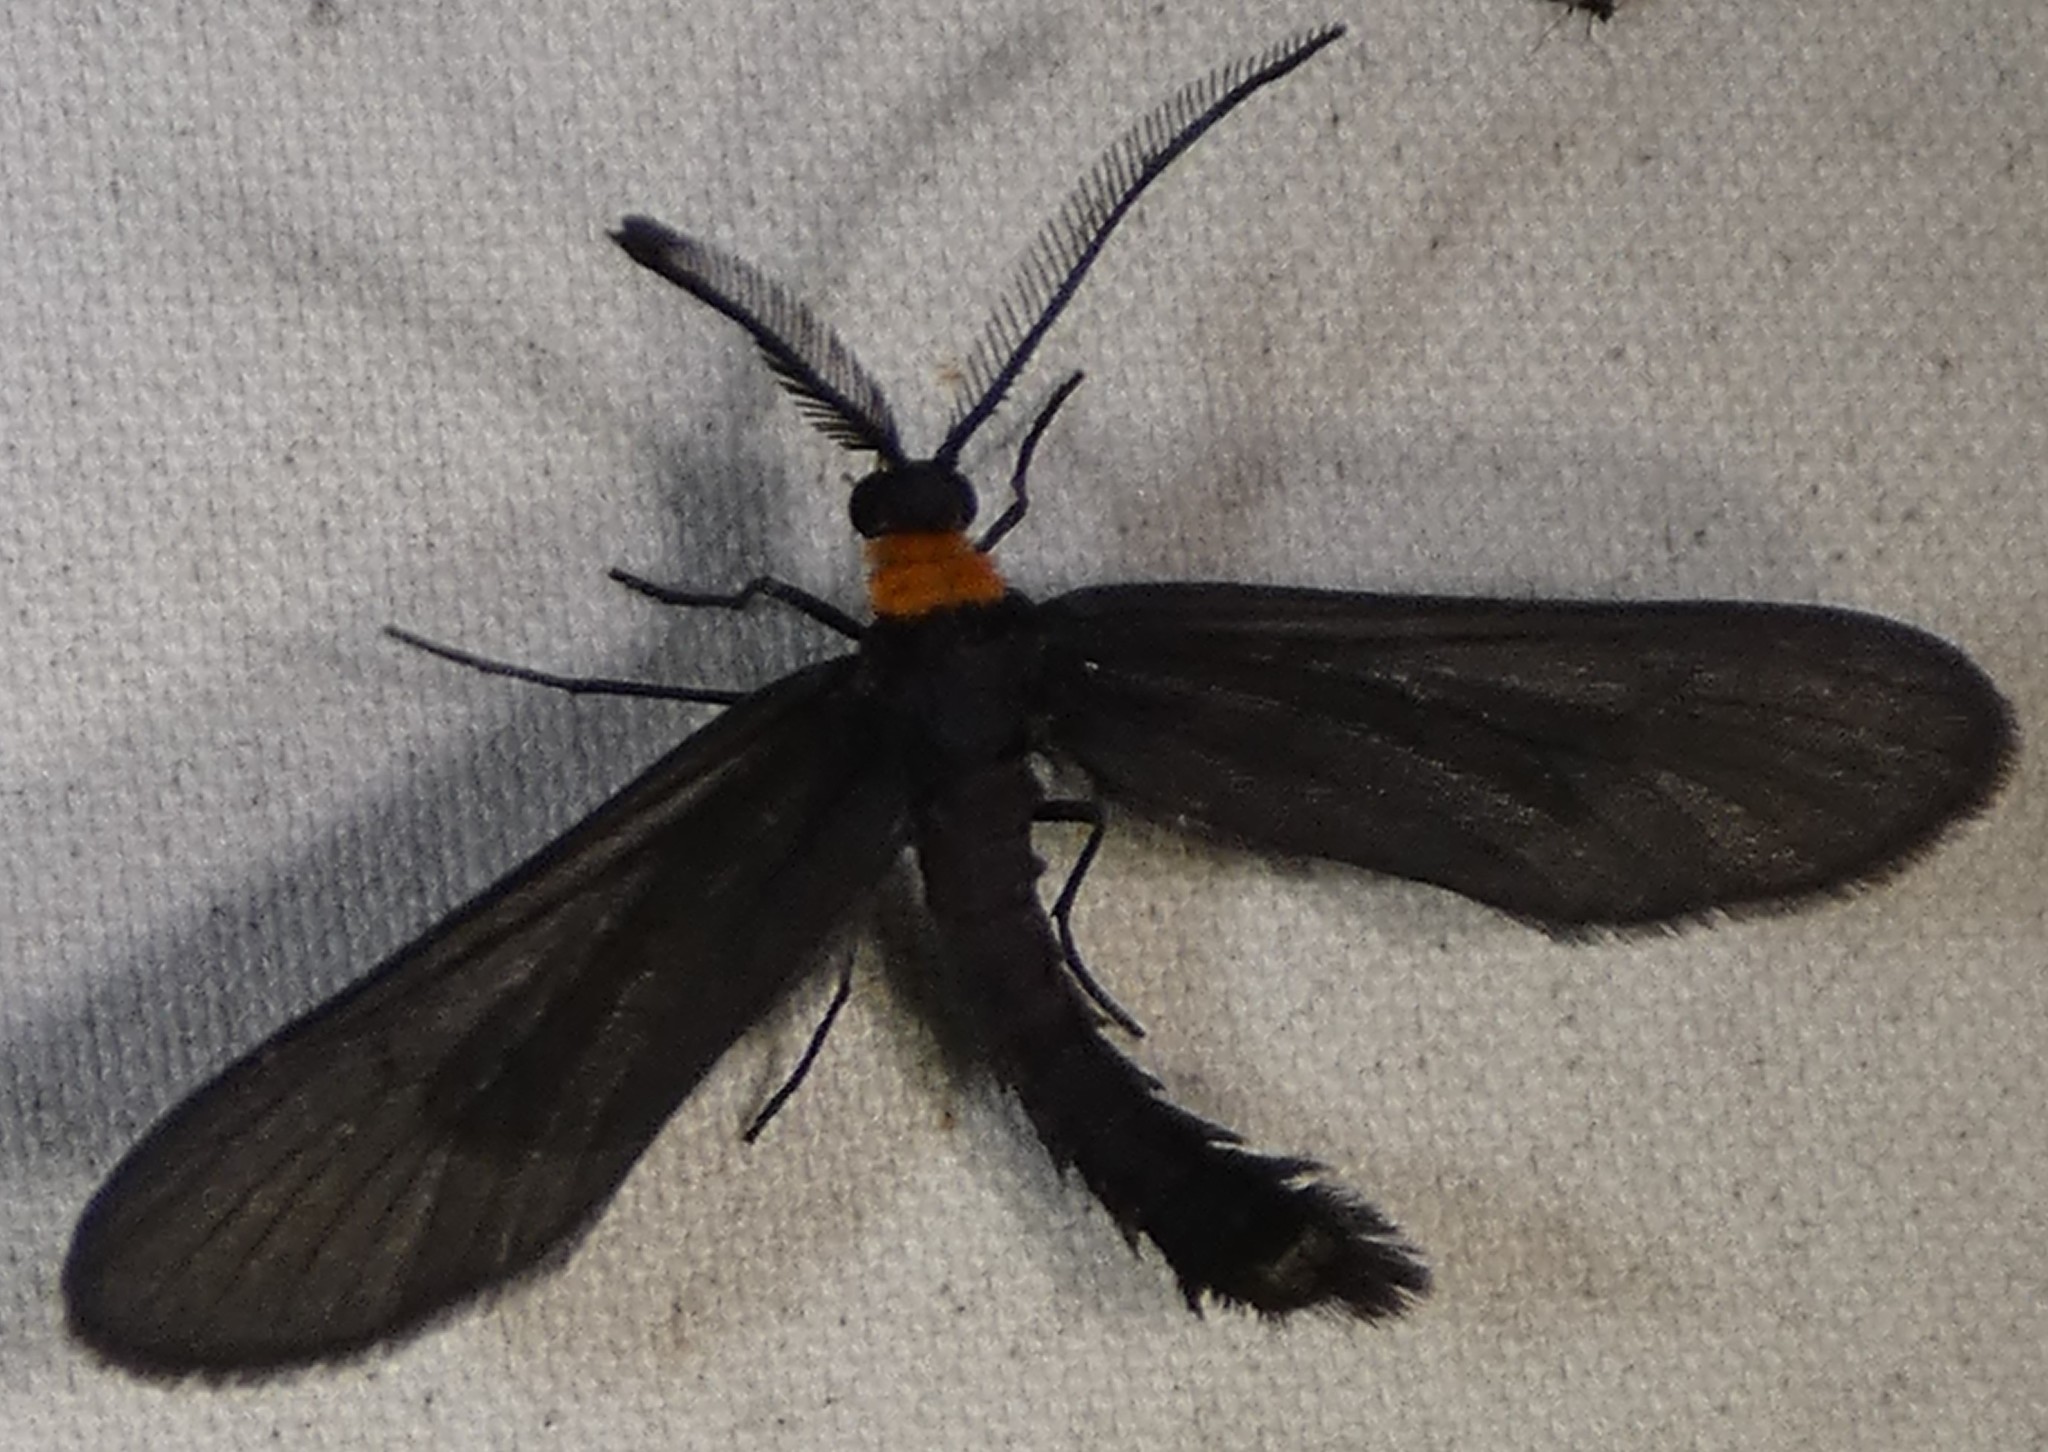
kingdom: Animalia
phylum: Arthropoda
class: Insecta
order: Lepidoptera
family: Zygaenidae
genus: Harrisina
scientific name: Harrisina americana
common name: Grapeleaf skeletonizer moth
